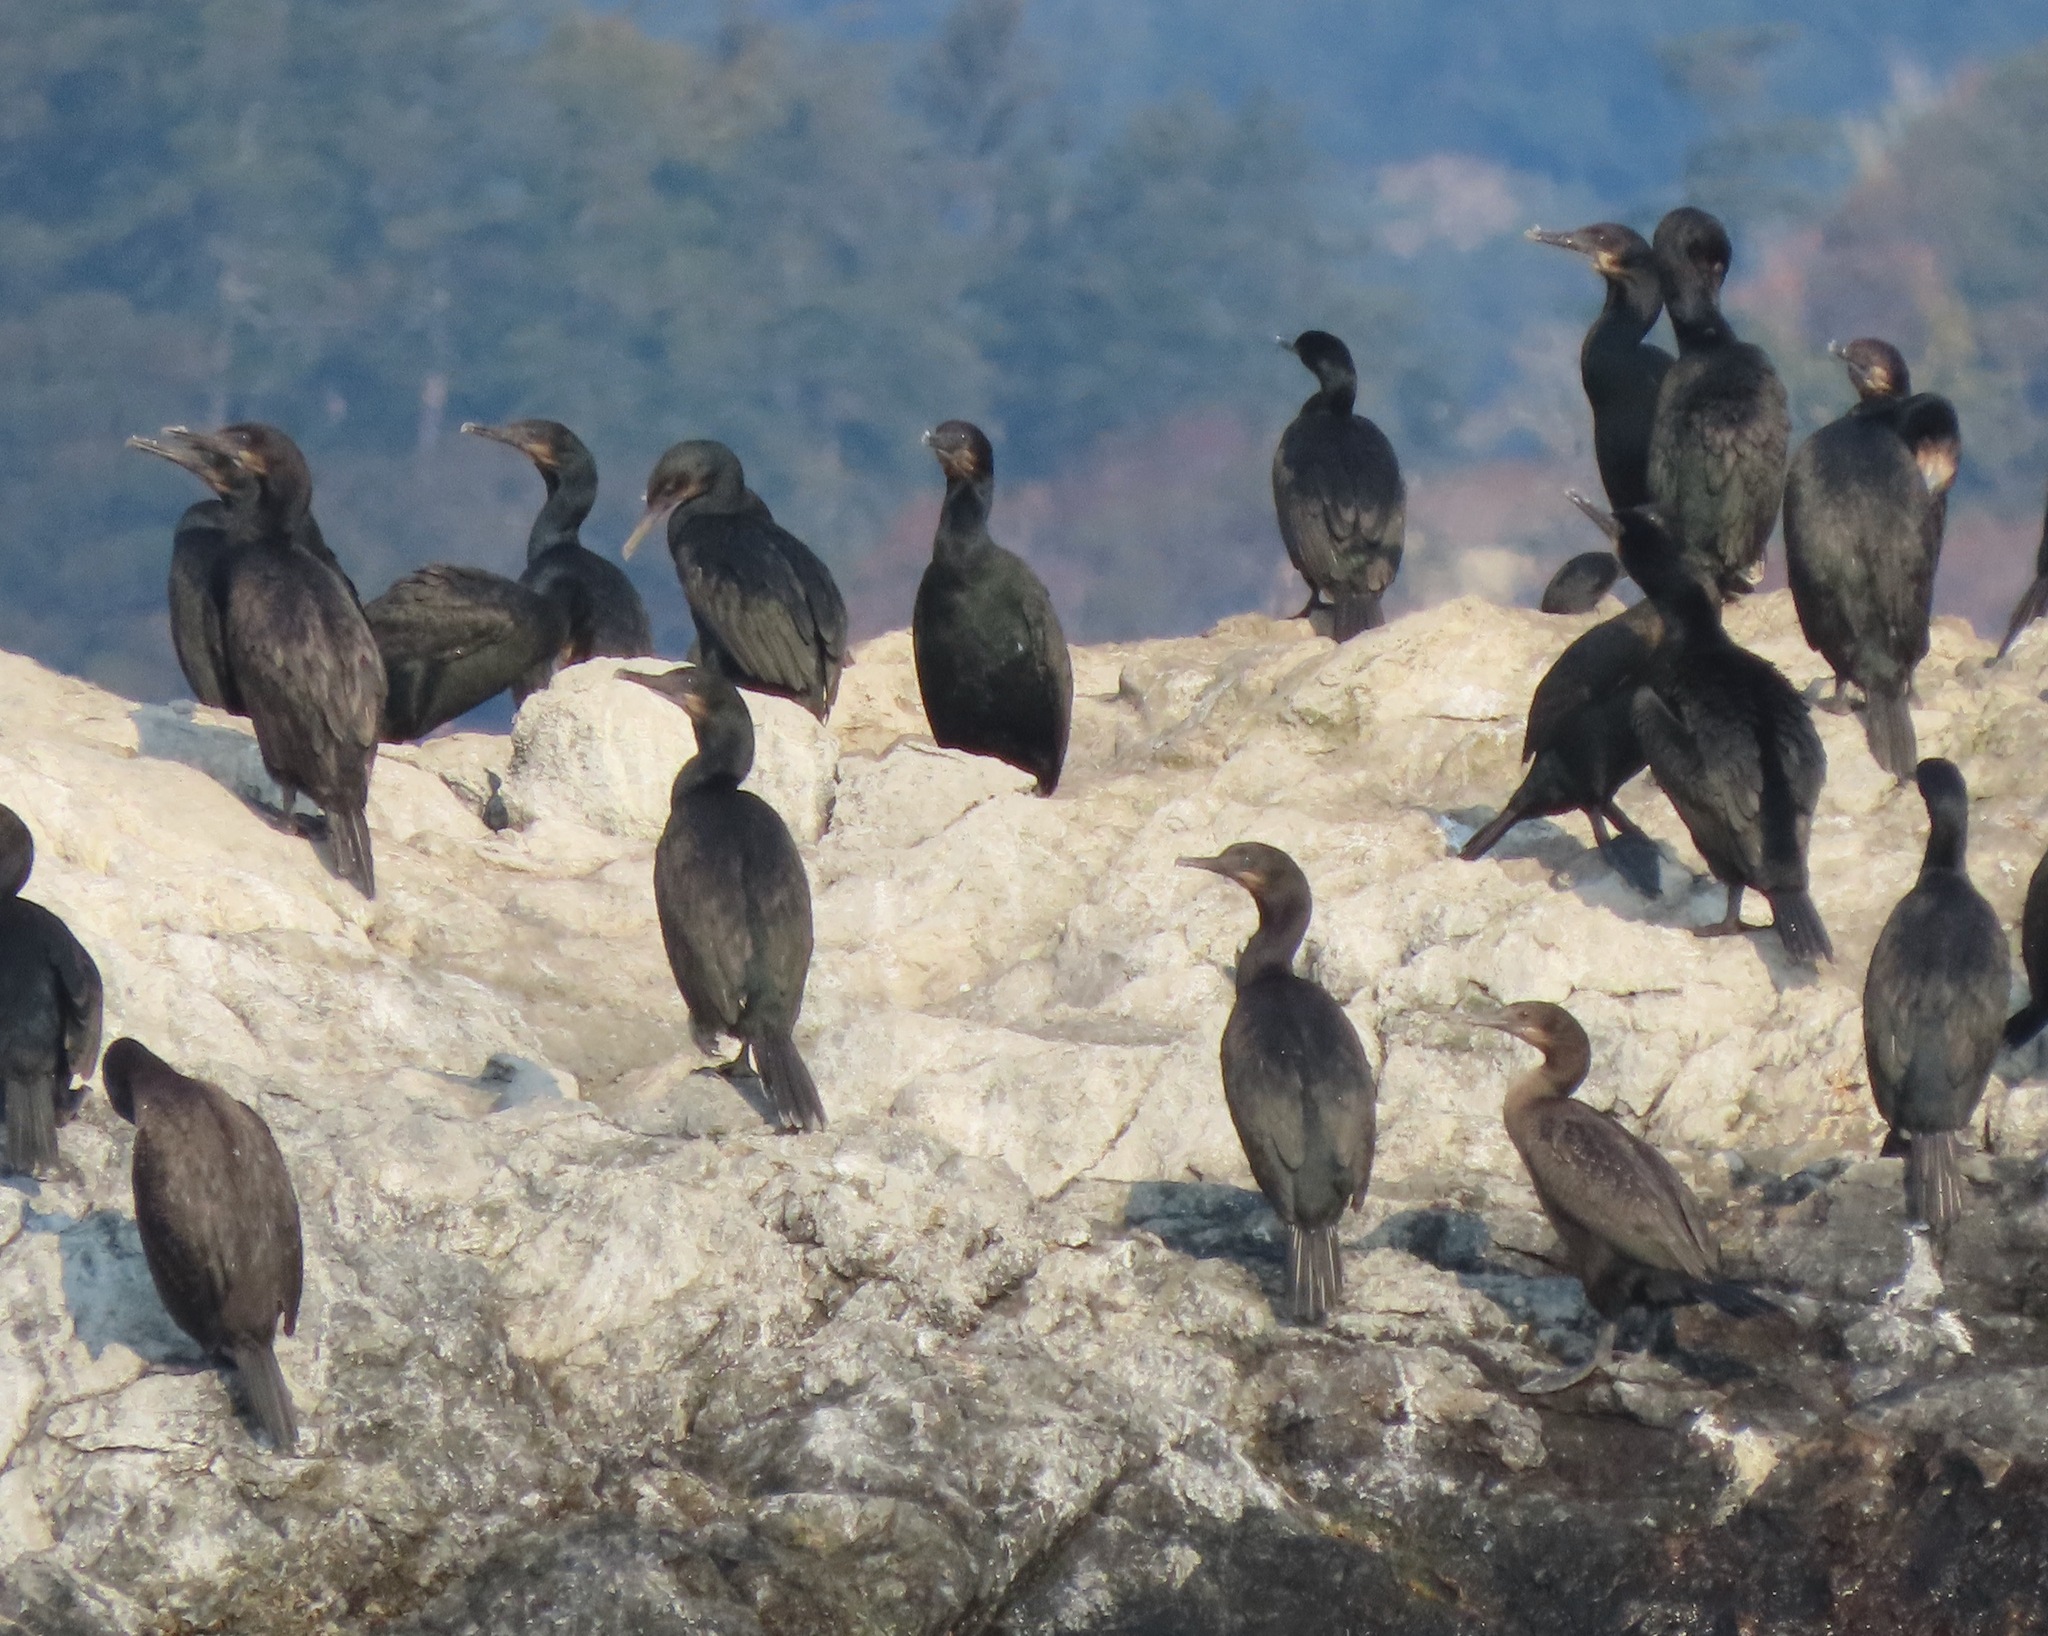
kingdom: Animalia
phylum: Chordata
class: Aves
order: Suliformes
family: Phalacrocoracidae
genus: Urile
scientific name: Urile penicillatus
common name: Brandt's cormorant
